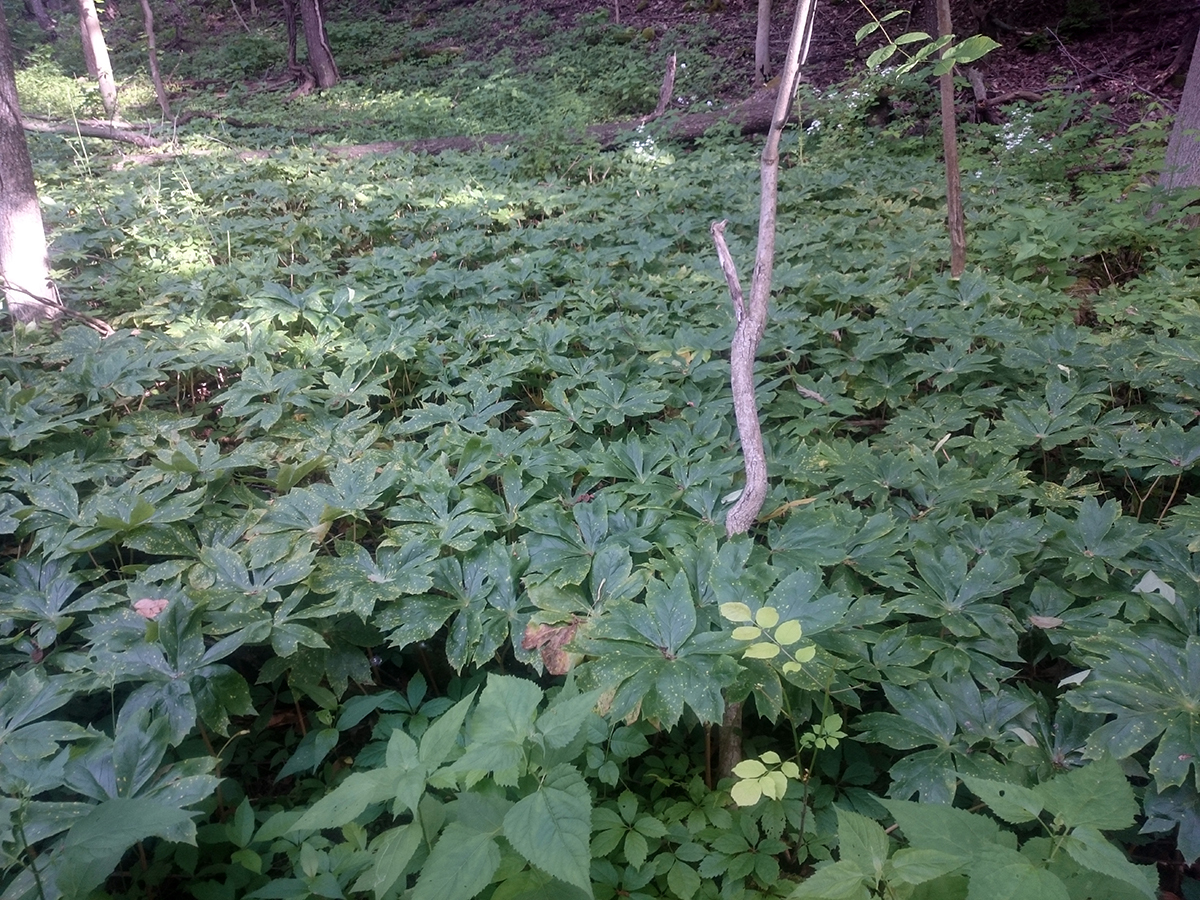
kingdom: Plantae
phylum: Tracheophyta
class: Magnoliopsida
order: Ranunculales
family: Berberidaceae
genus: Podophyllum
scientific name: Podophyllum peltatum
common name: Wild mandrake
